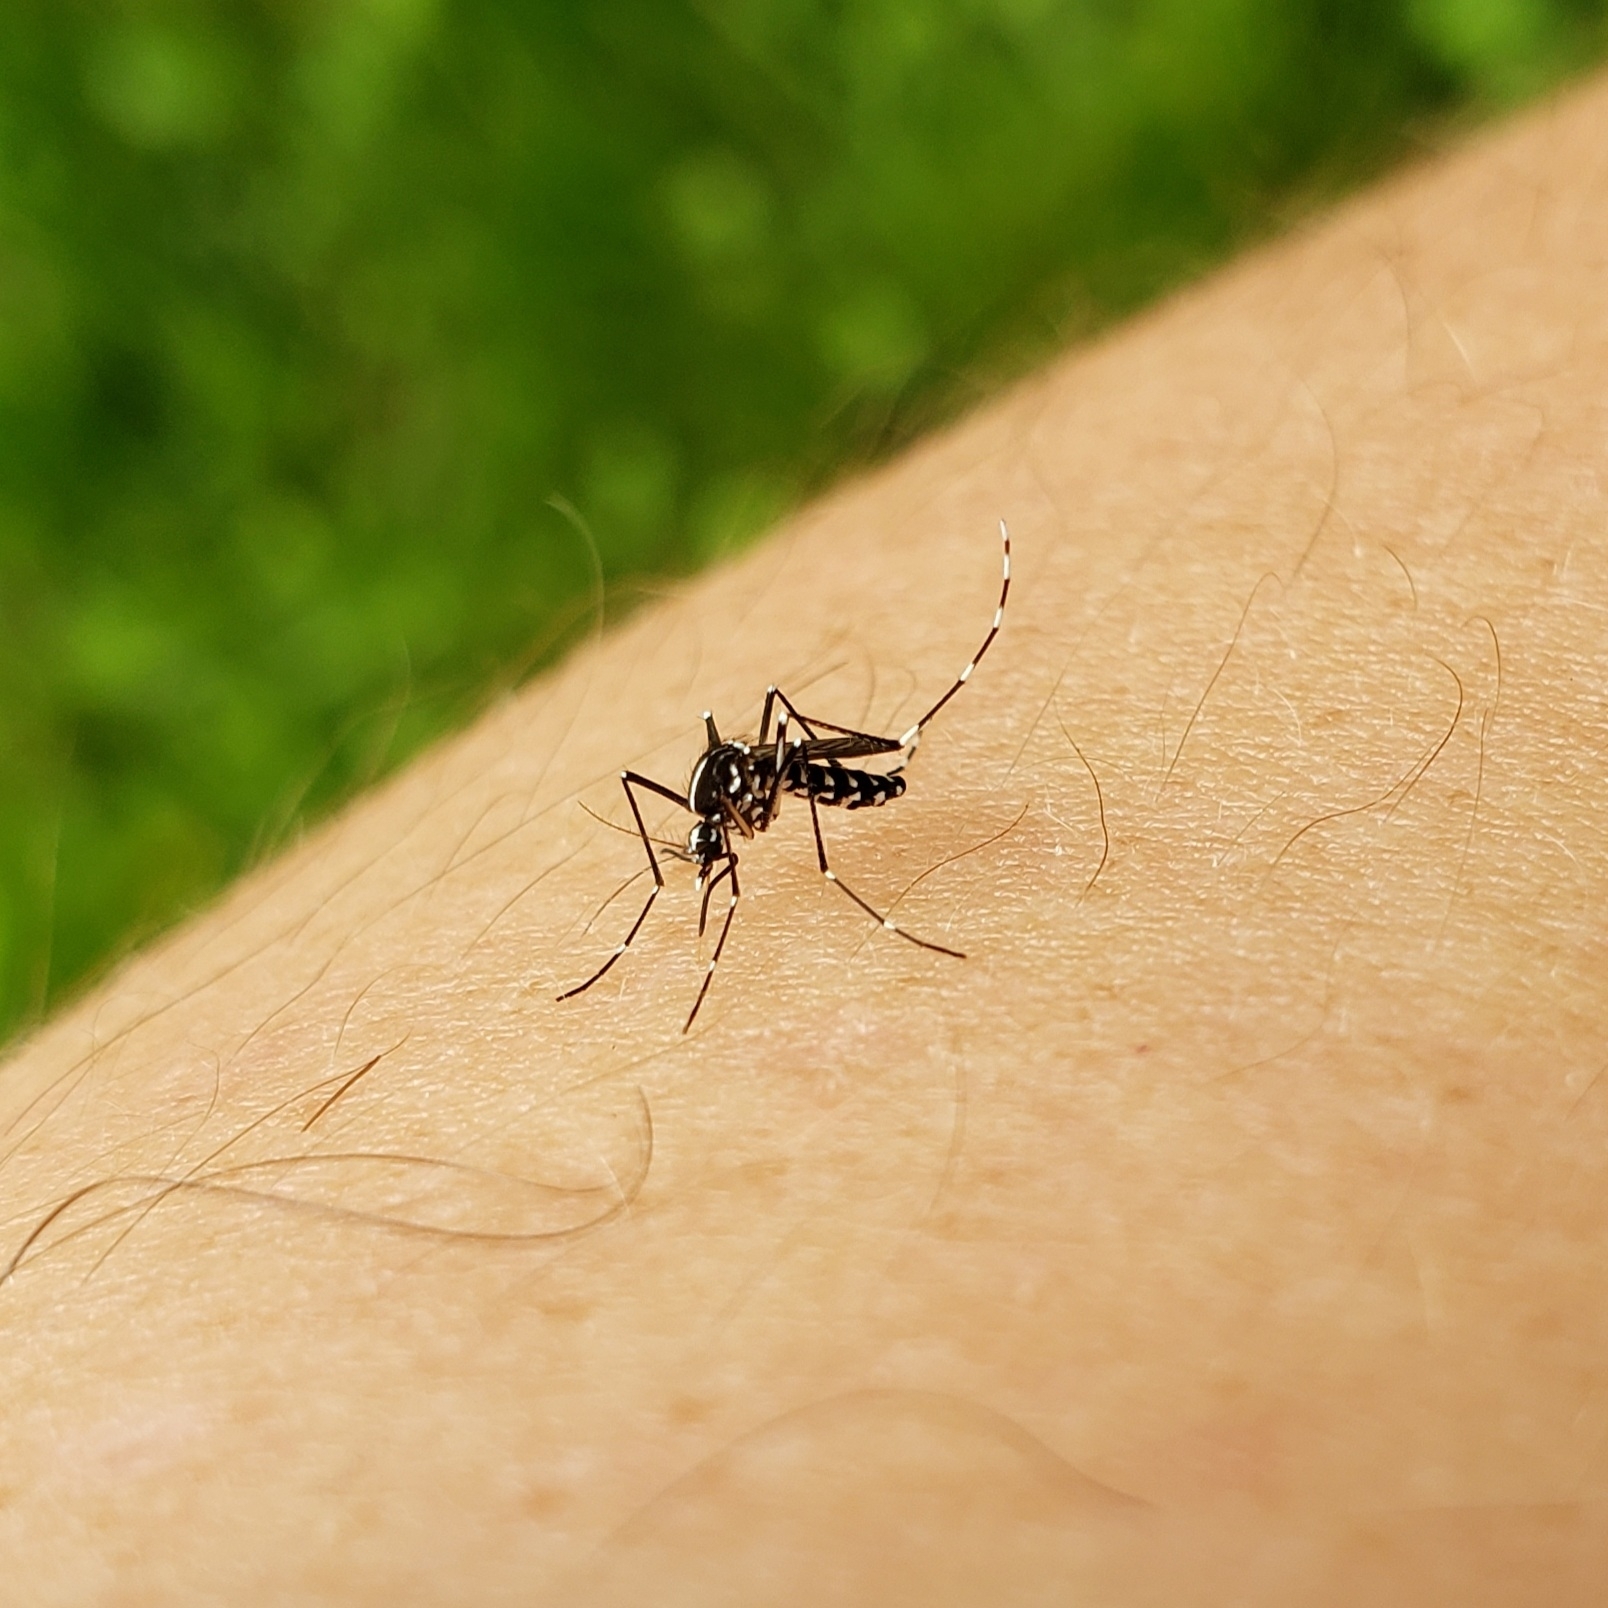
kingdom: Animalia
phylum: Arthropoda
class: Insecta
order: Diptera
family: Culicidae
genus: Aedes
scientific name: Aedes albopictus
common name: Tiger mosquito
